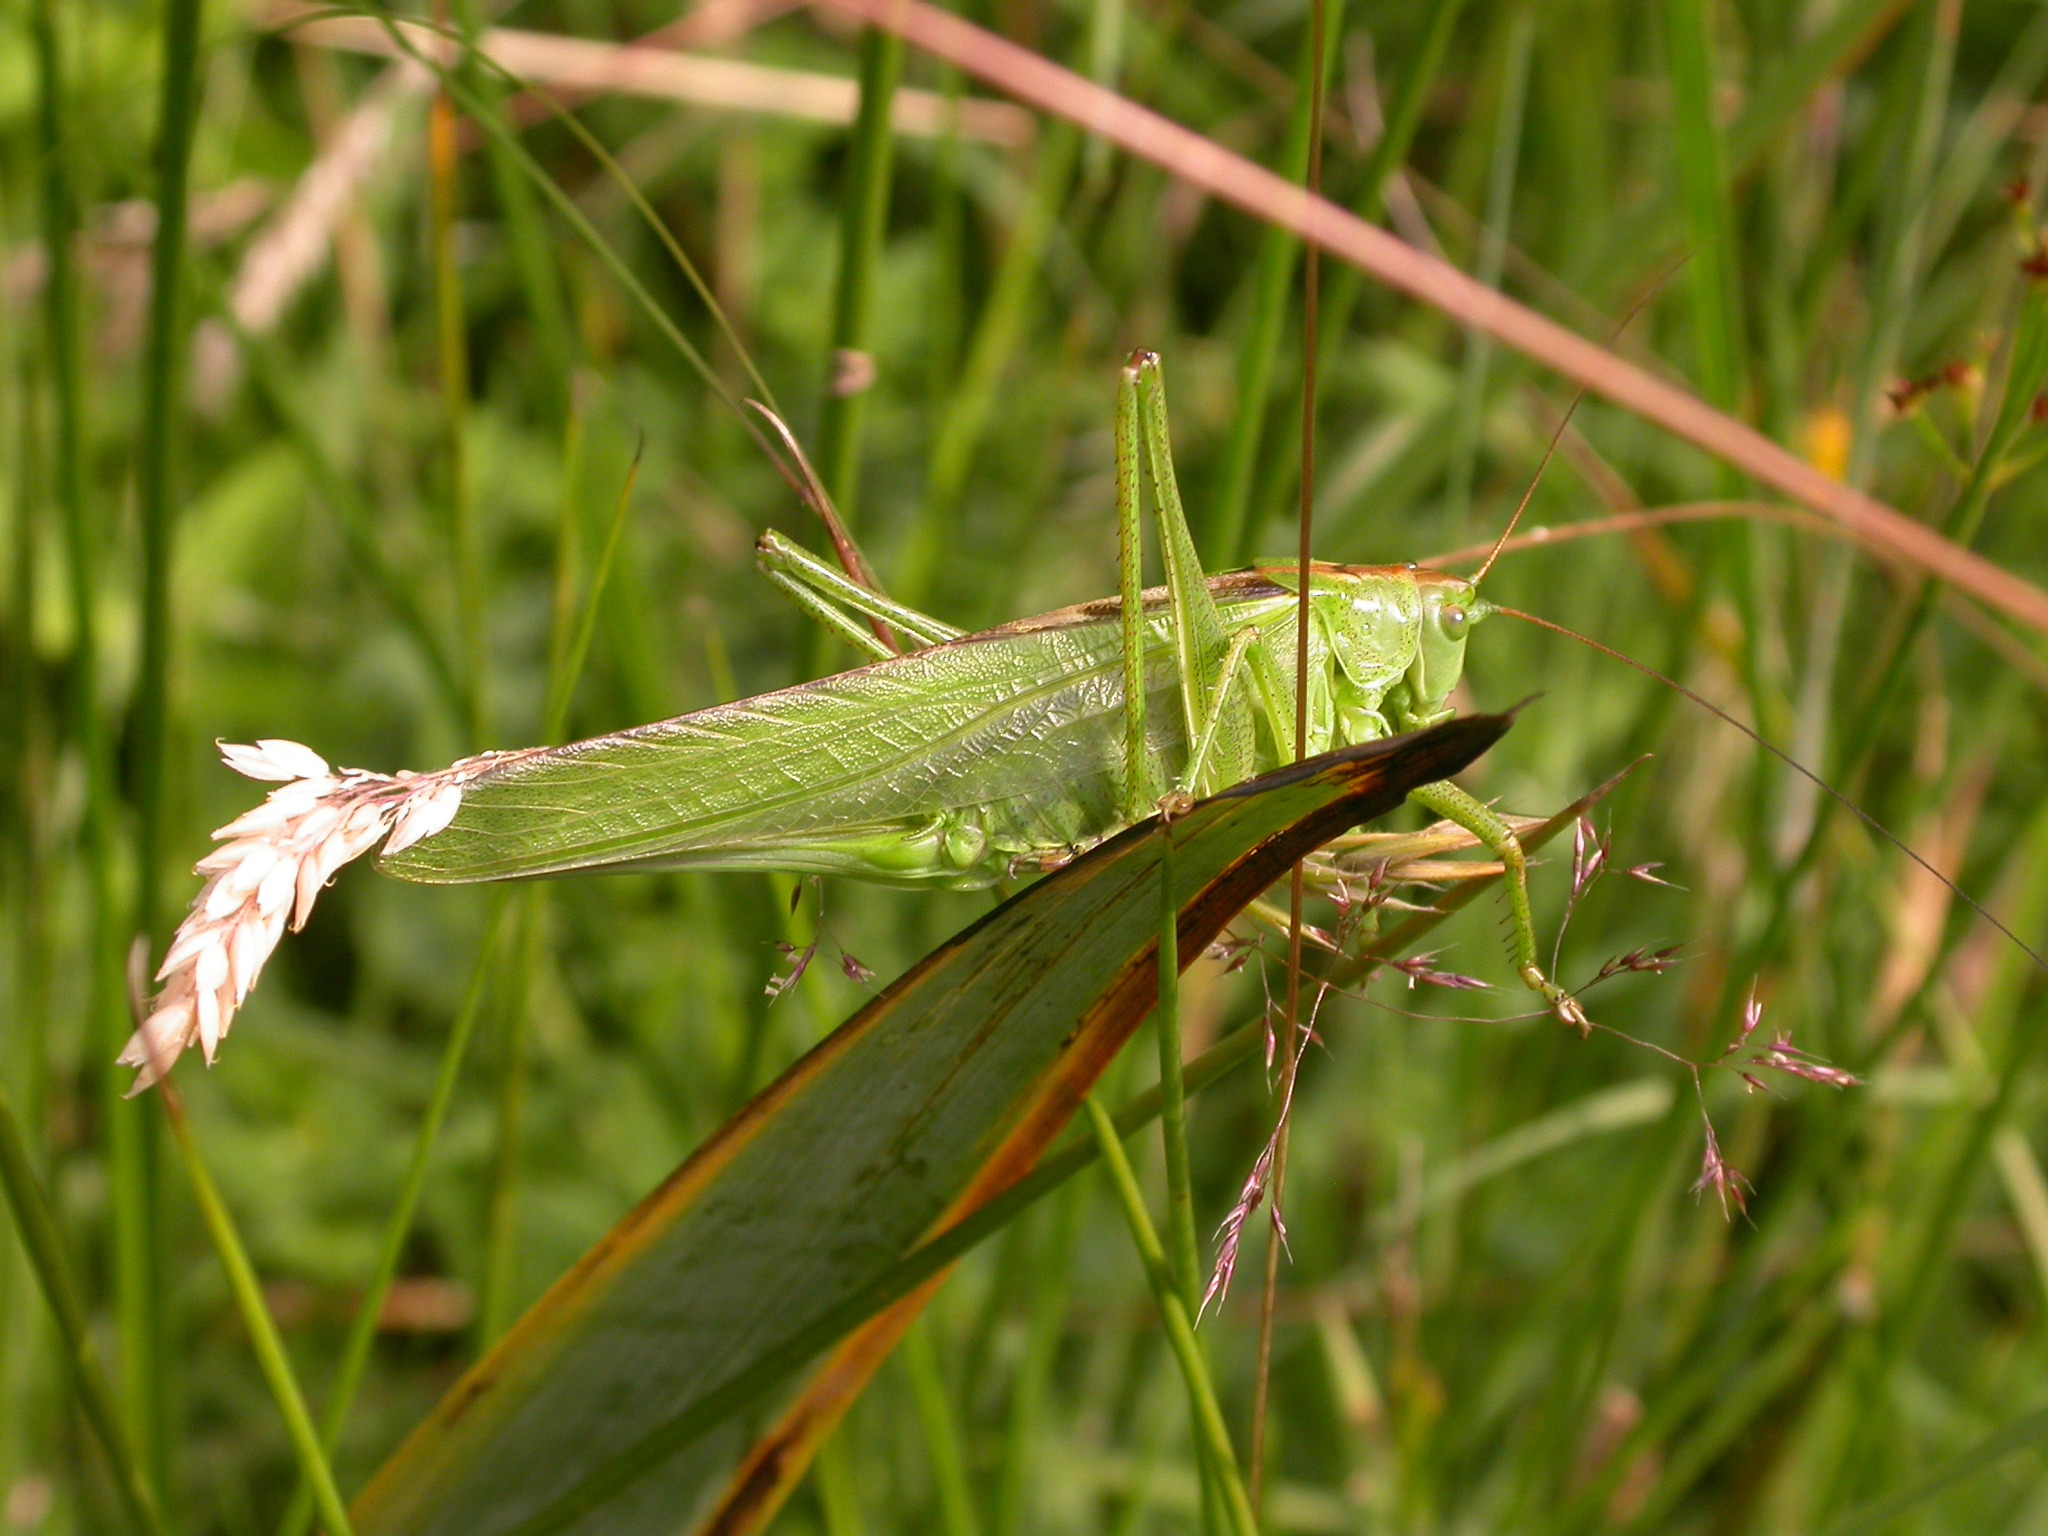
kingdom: Animalia
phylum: Arthropoda
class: Insecta
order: Orthoptera
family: Tettigoniidae
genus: Tettigonia
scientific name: Tettigonia viridissima
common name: Great green bush-cricket
